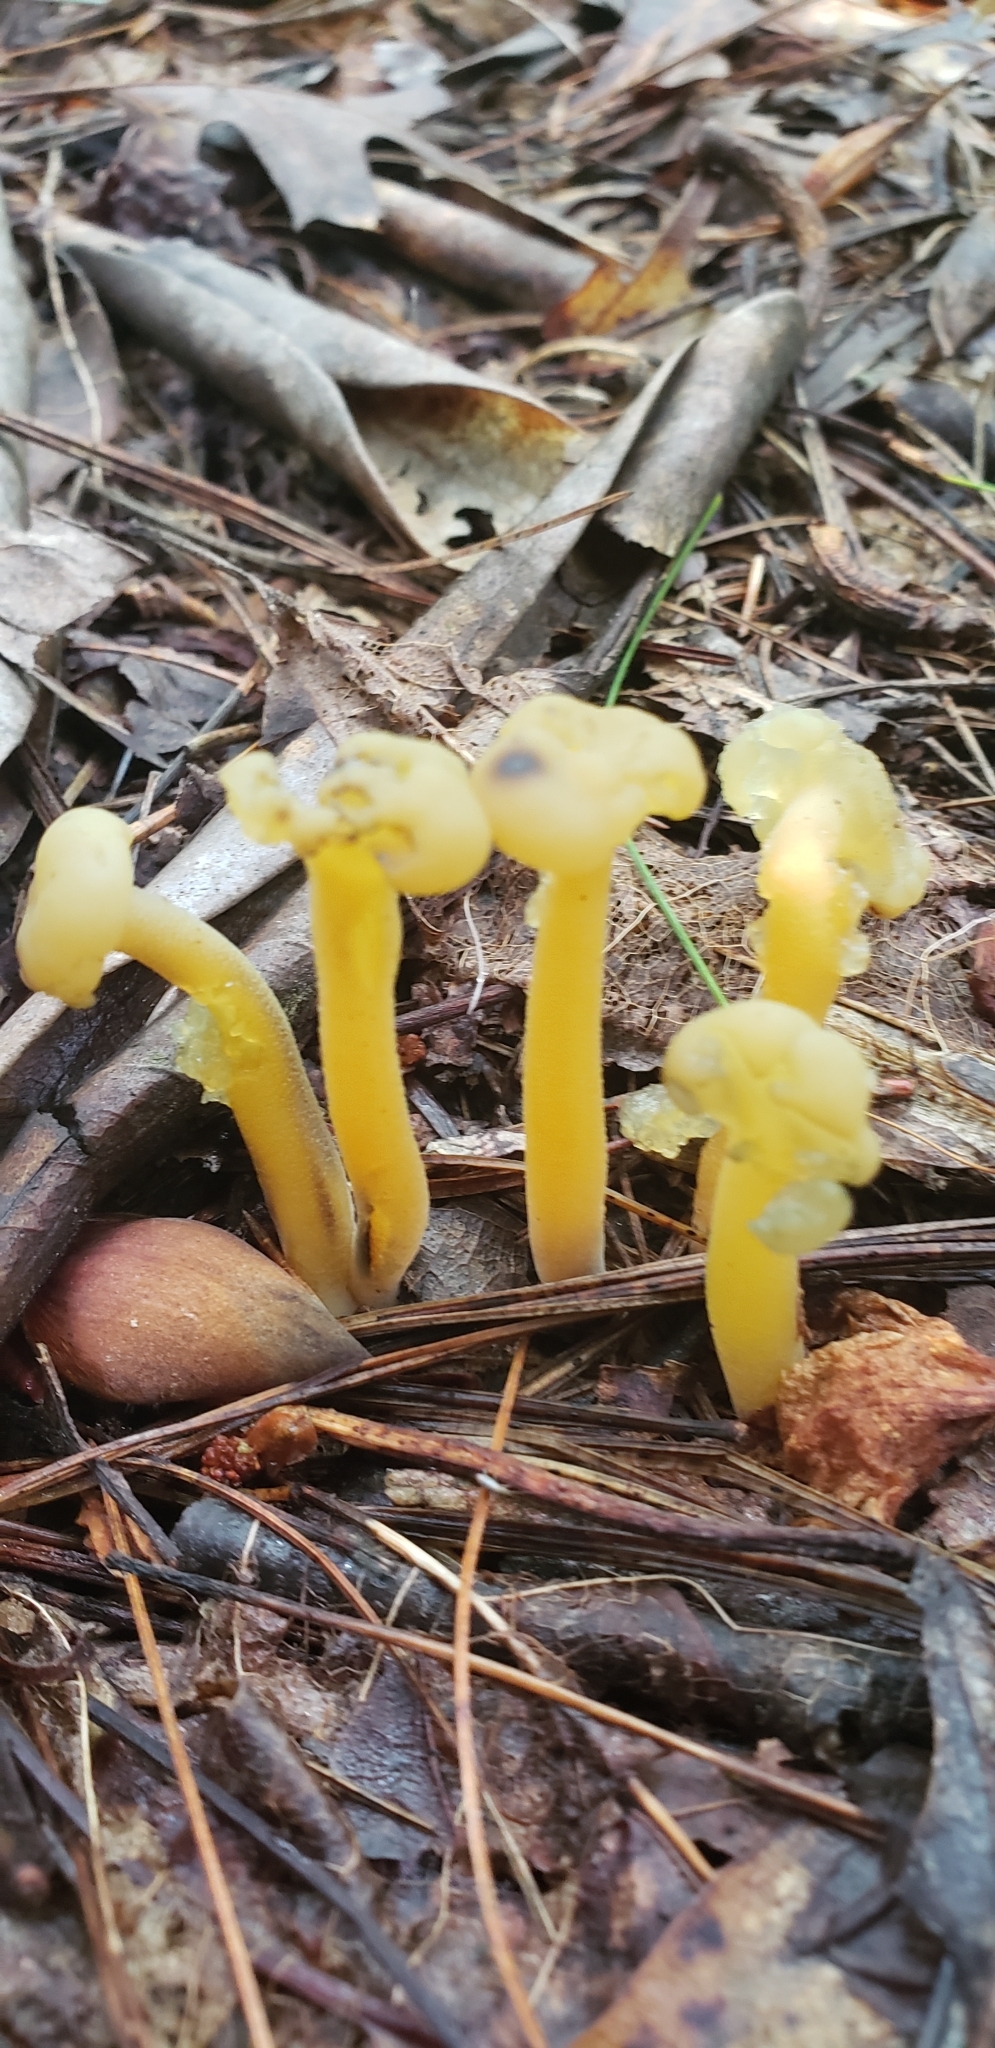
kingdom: Fungi
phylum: Ascomycota
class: Leotiomycetes
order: Leotiales
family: Leotiaceae
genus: Leotia
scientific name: Leotia lubrica
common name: Jellybaby
